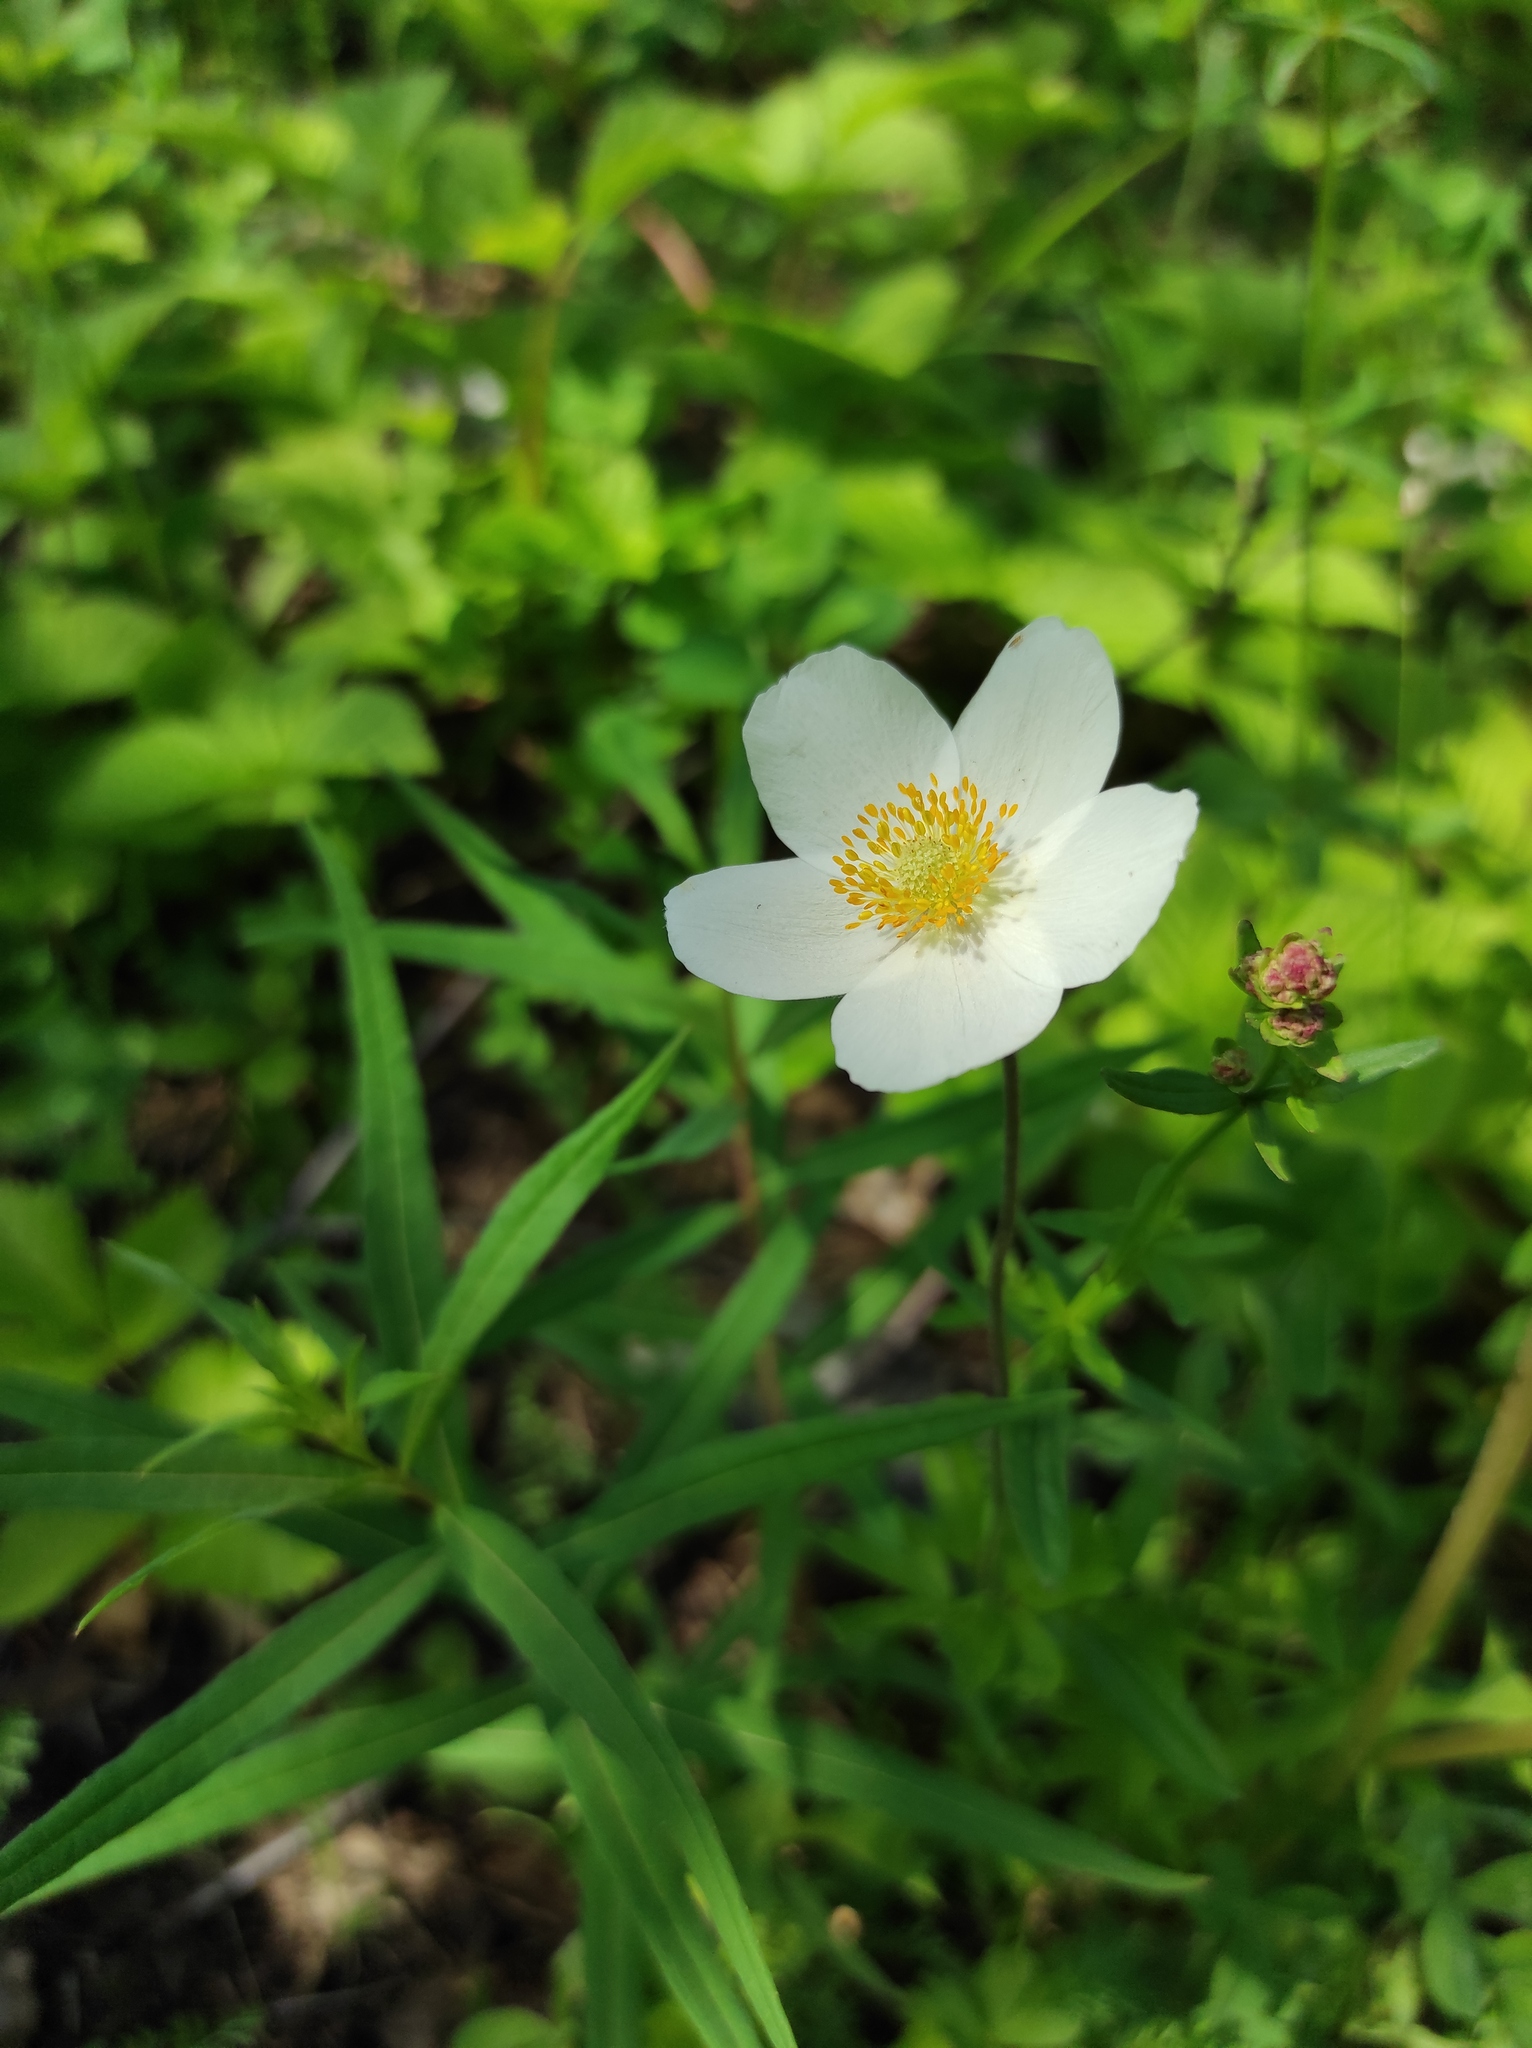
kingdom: Plantae
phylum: Tracheophyta
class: Magnoliopsida
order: Ranunculales
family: Ranunculaceae
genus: Anemone
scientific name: Anemone sylvestris
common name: Snowdrop anemone
